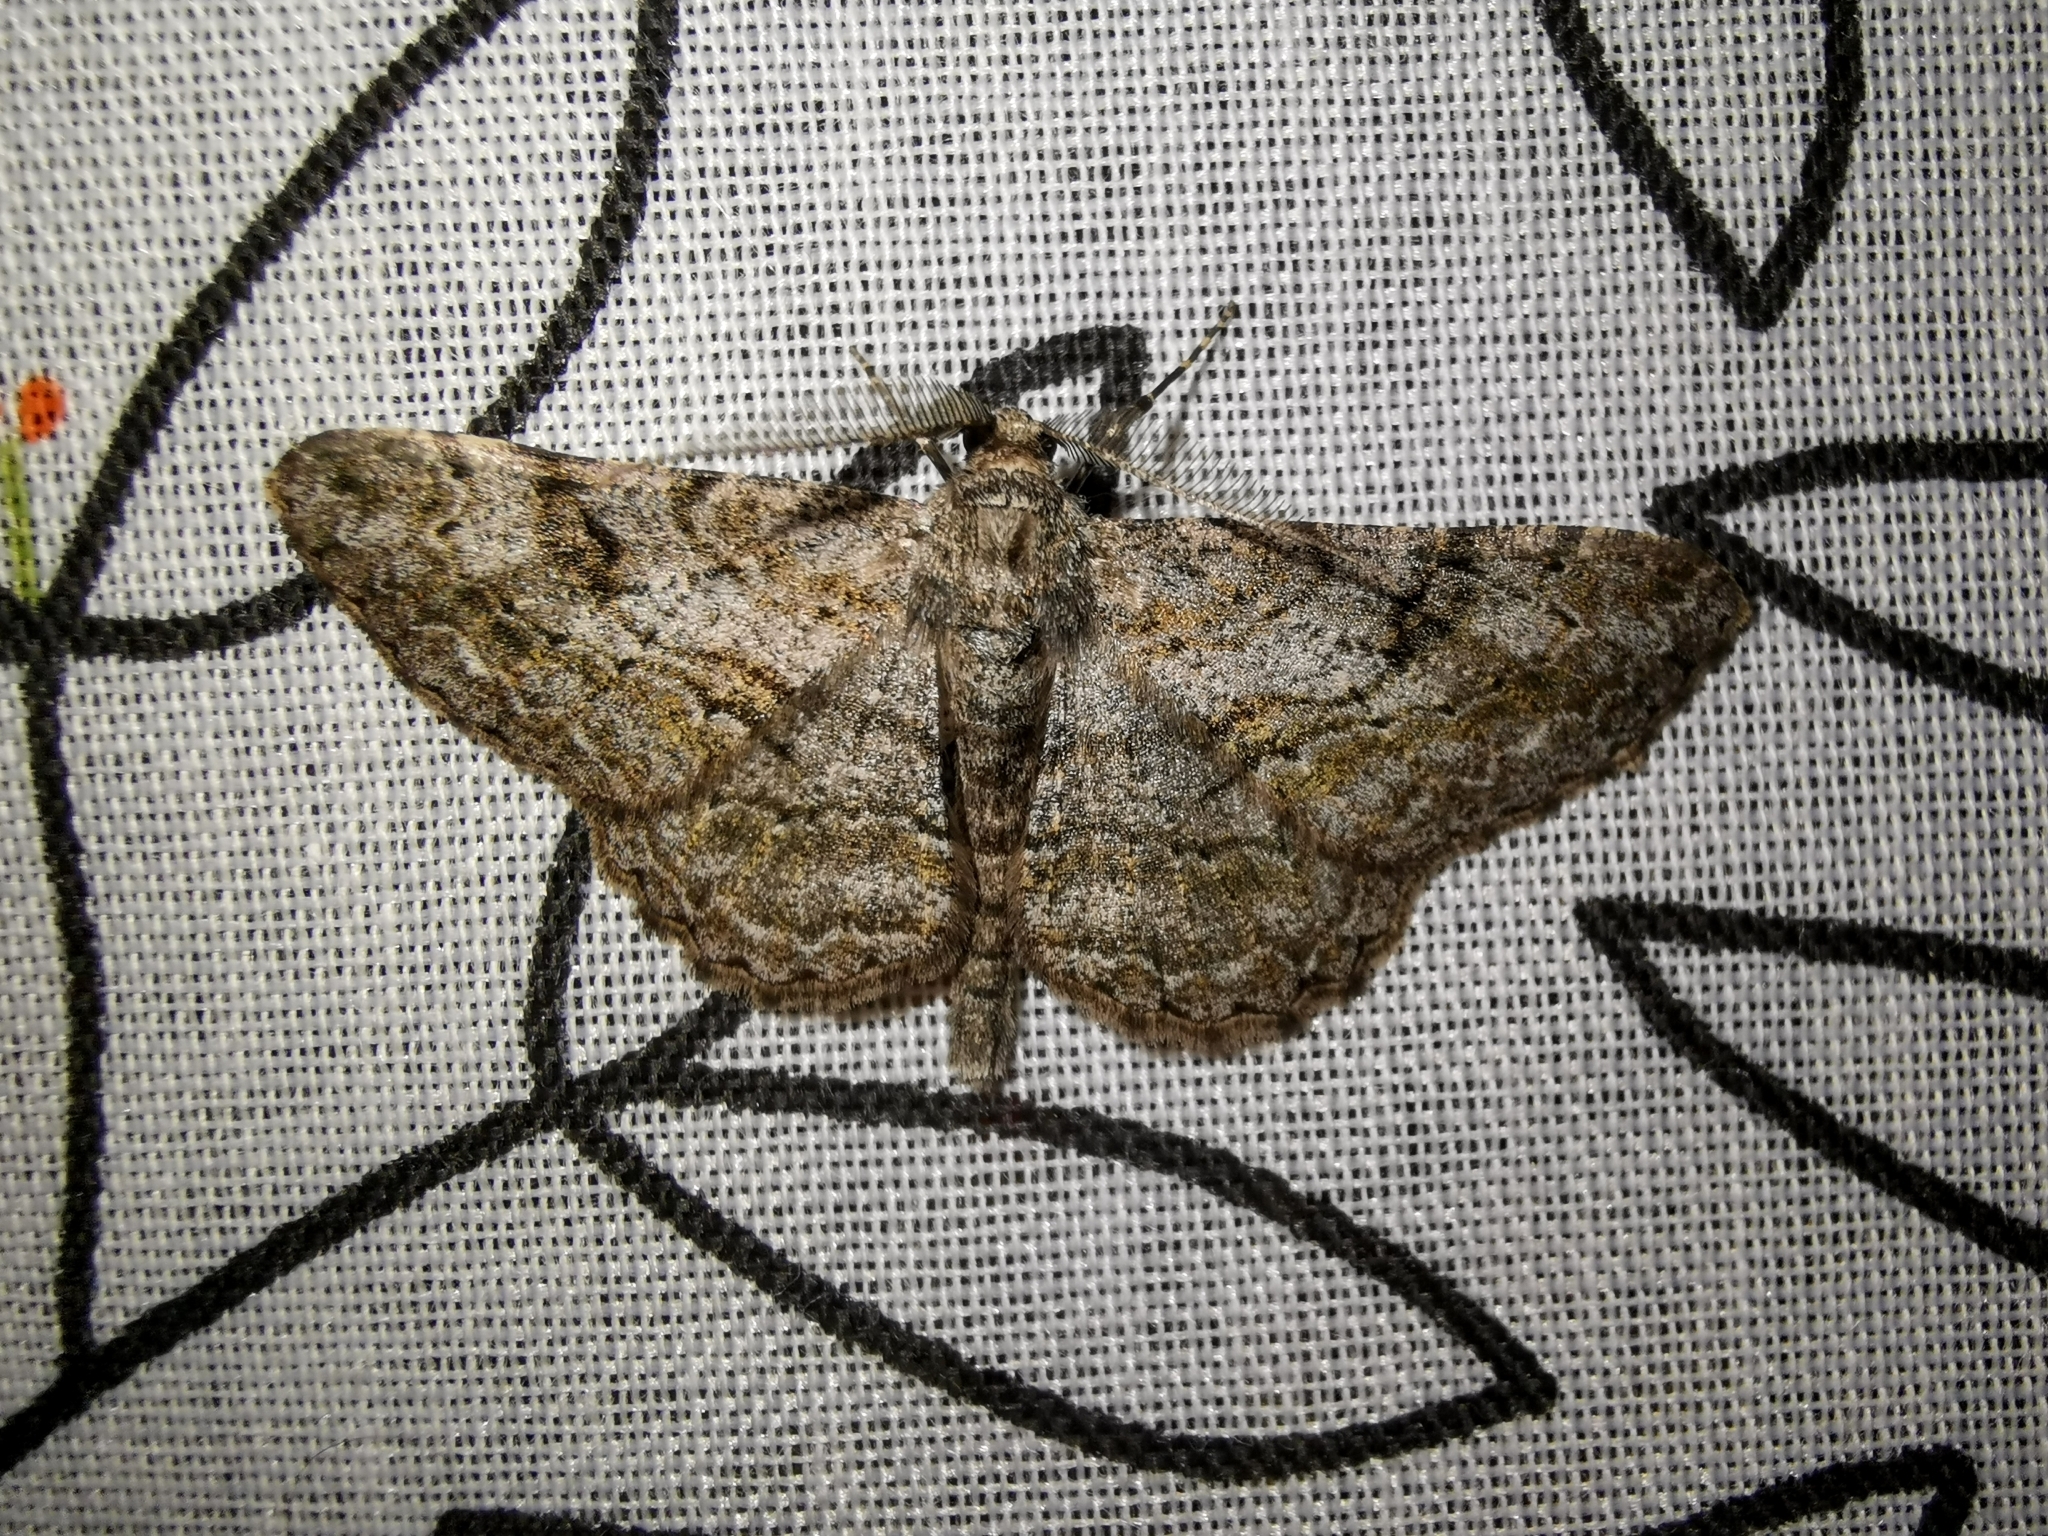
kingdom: Animalia
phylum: Arthropoda
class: Insecta
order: Lepidoptera
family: Geometridae
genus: Peribatodes
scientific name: Peribatodes rhomboidaria
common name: Willow beauty
